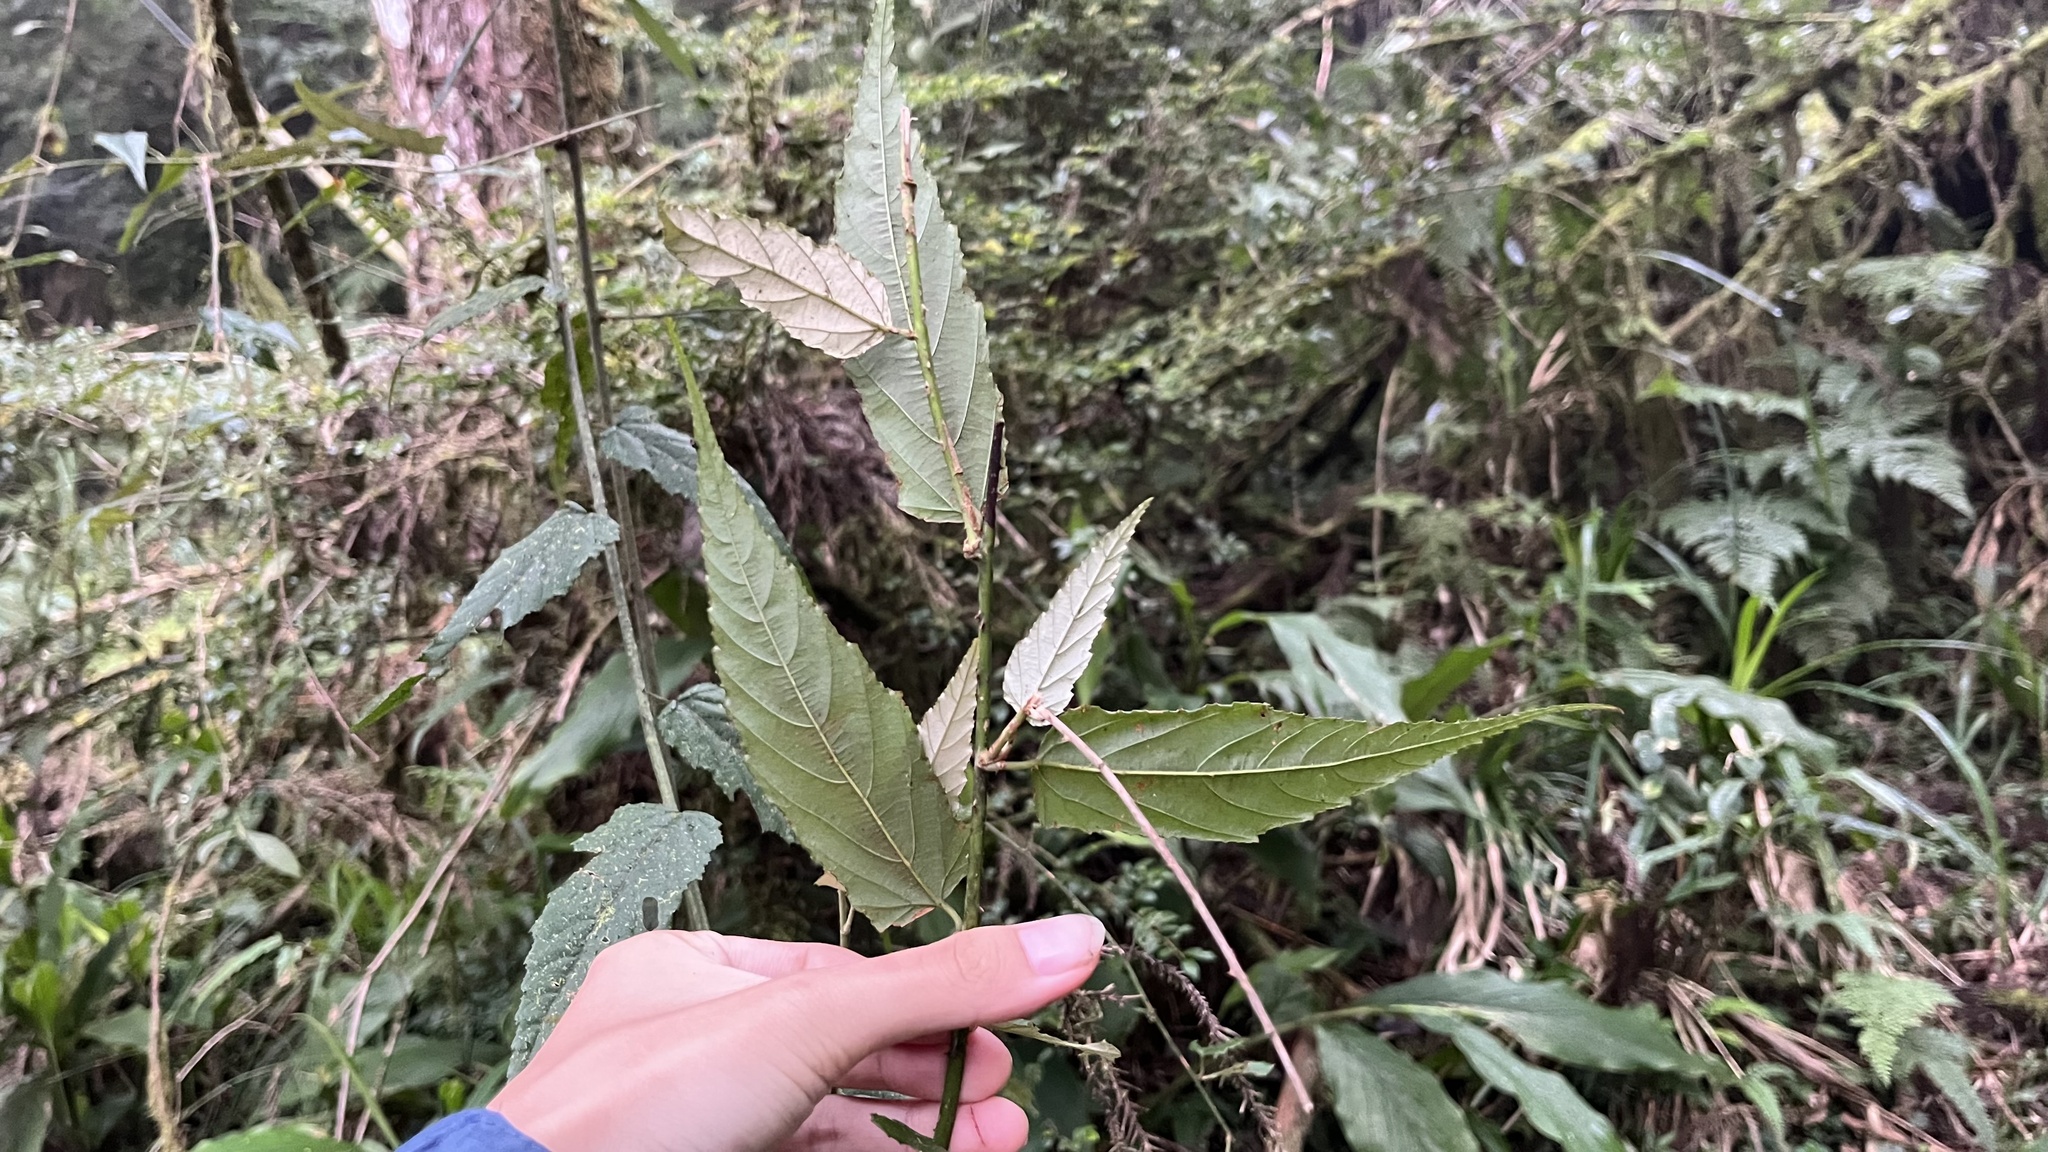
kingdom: Plantae
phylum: Tracheophyta
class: Magnoliopsida
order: Rosales
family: Rosaceae
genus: Rubus
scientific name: Rubus swinhoei
